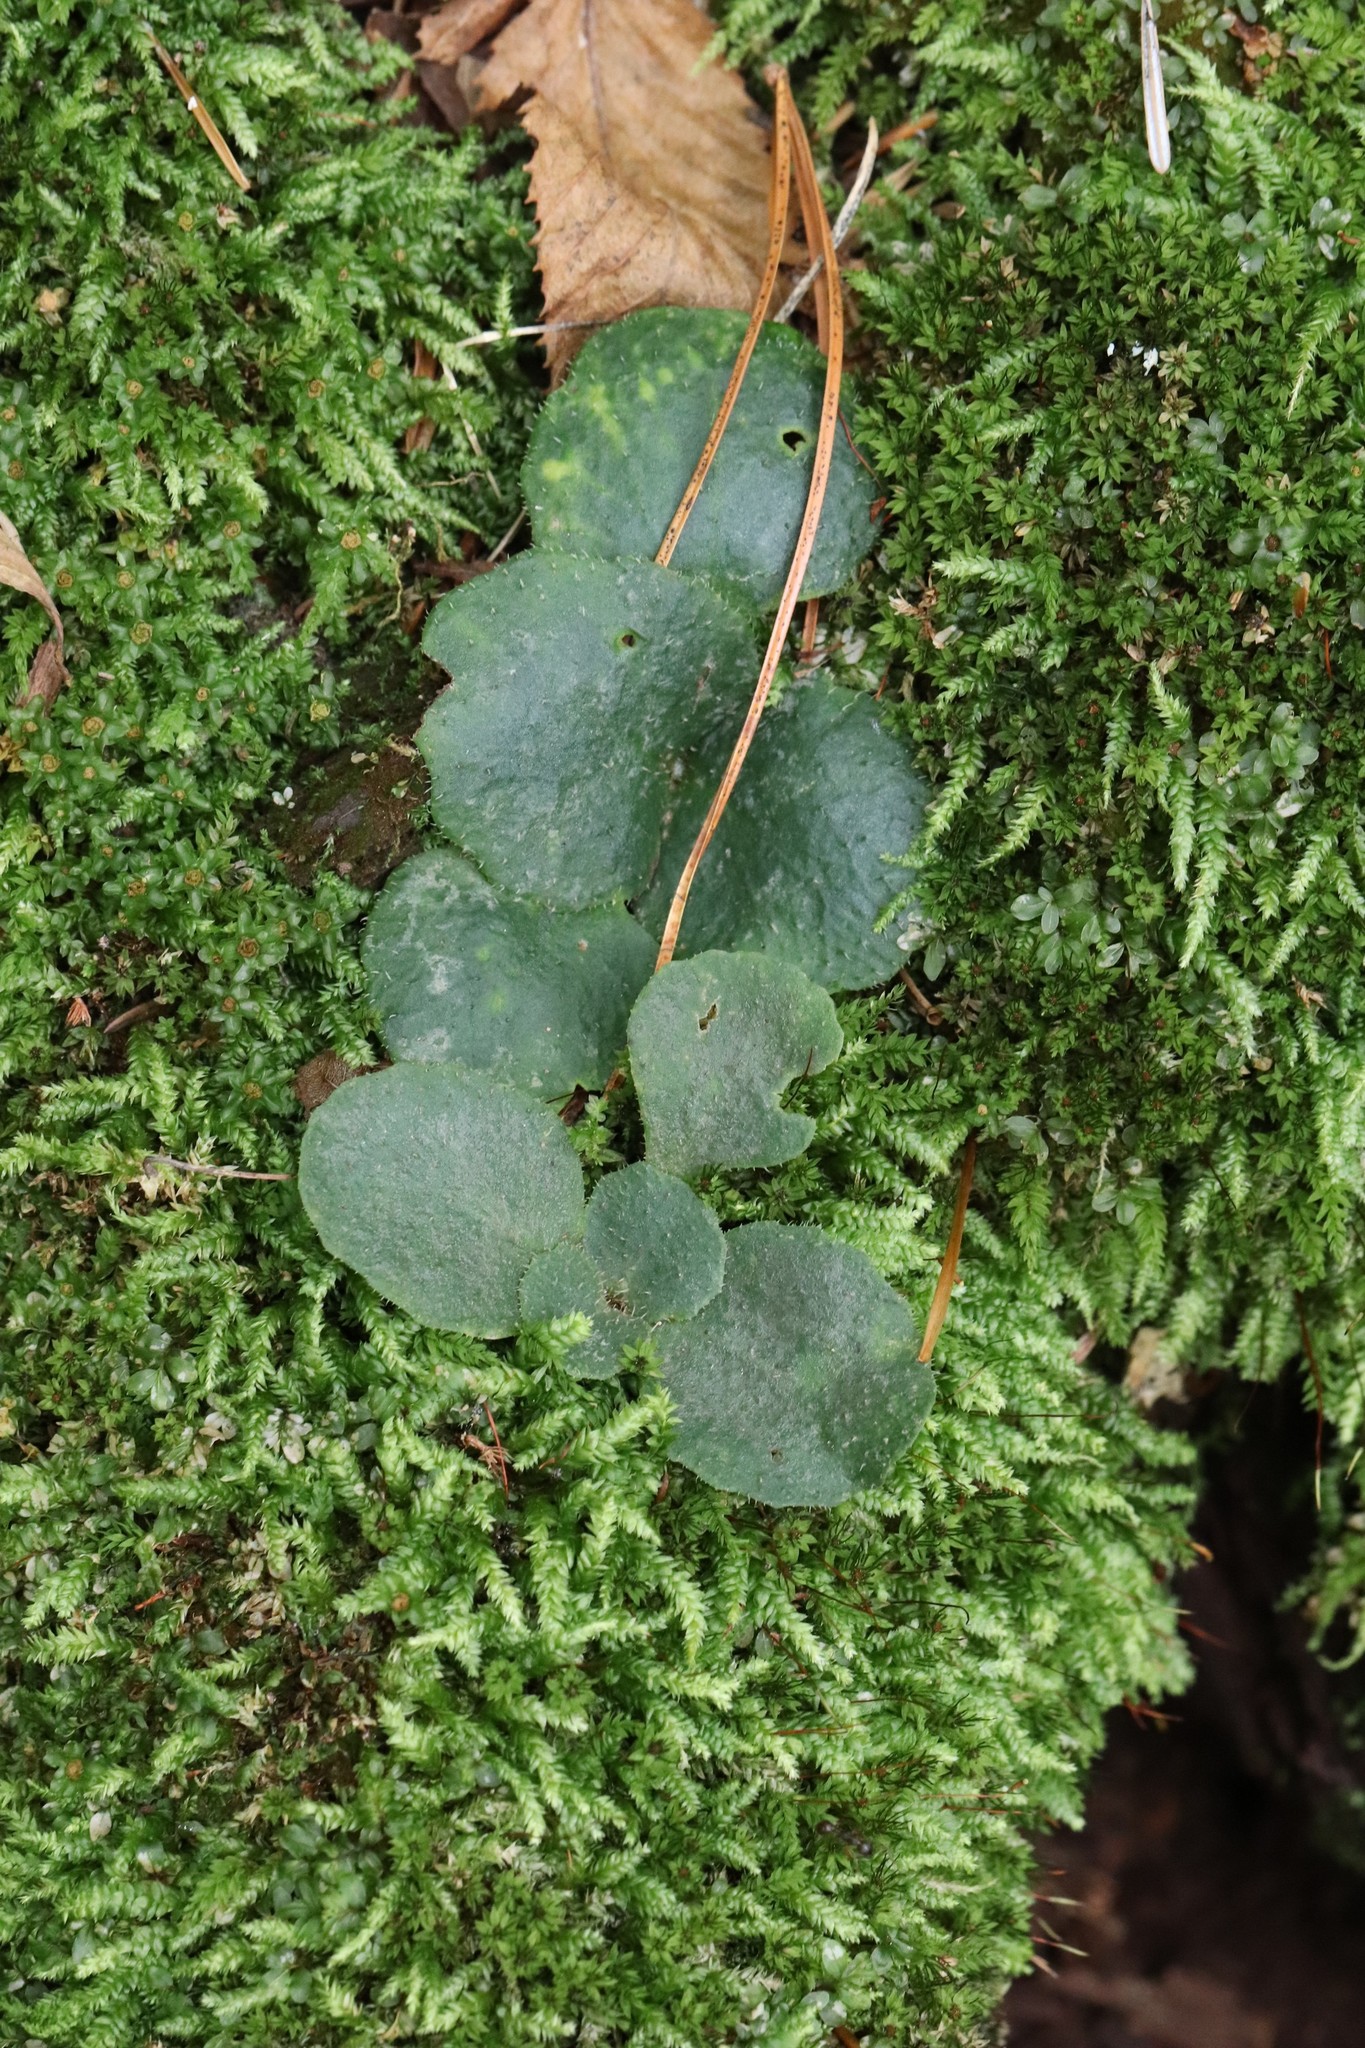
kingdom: Plantae
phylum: Tracheophyta
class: Magnoliopsida
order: Saxifragales
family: Saxifragaceae
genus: Chrysosplenium
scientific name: Chrysosplenium pilosum
